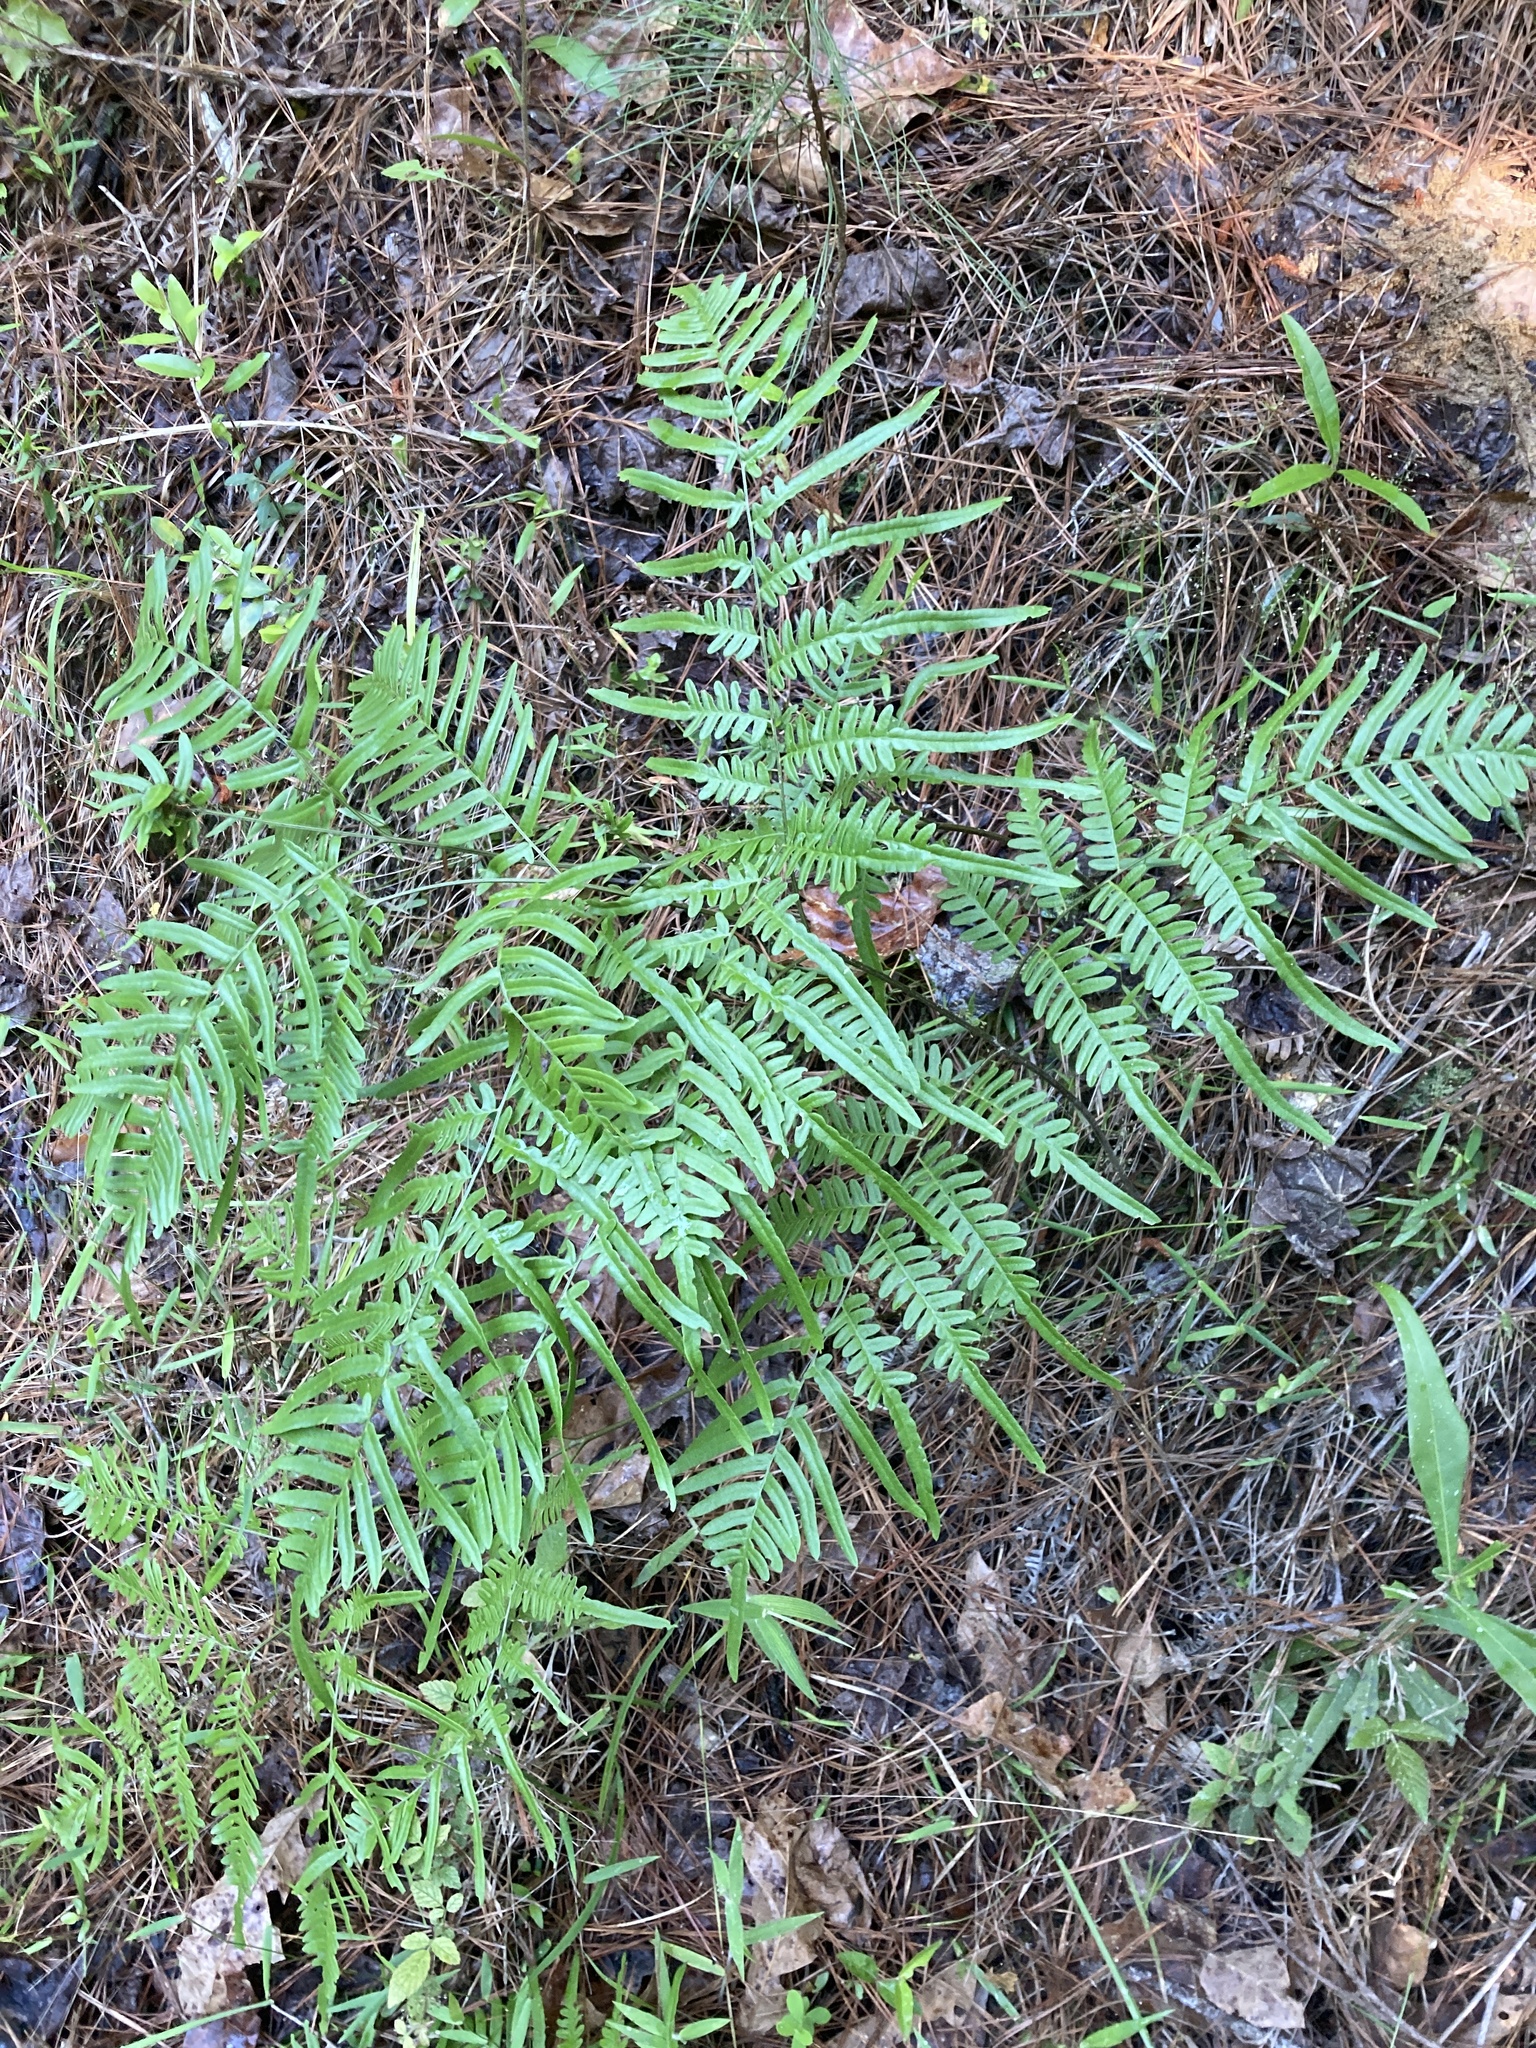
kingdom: Plantae
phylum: Tracheophyta
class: Polypodiopsida
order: Polypodiales
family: Dennstaedtiaceae
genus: Pteridium
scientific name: Pteridium
